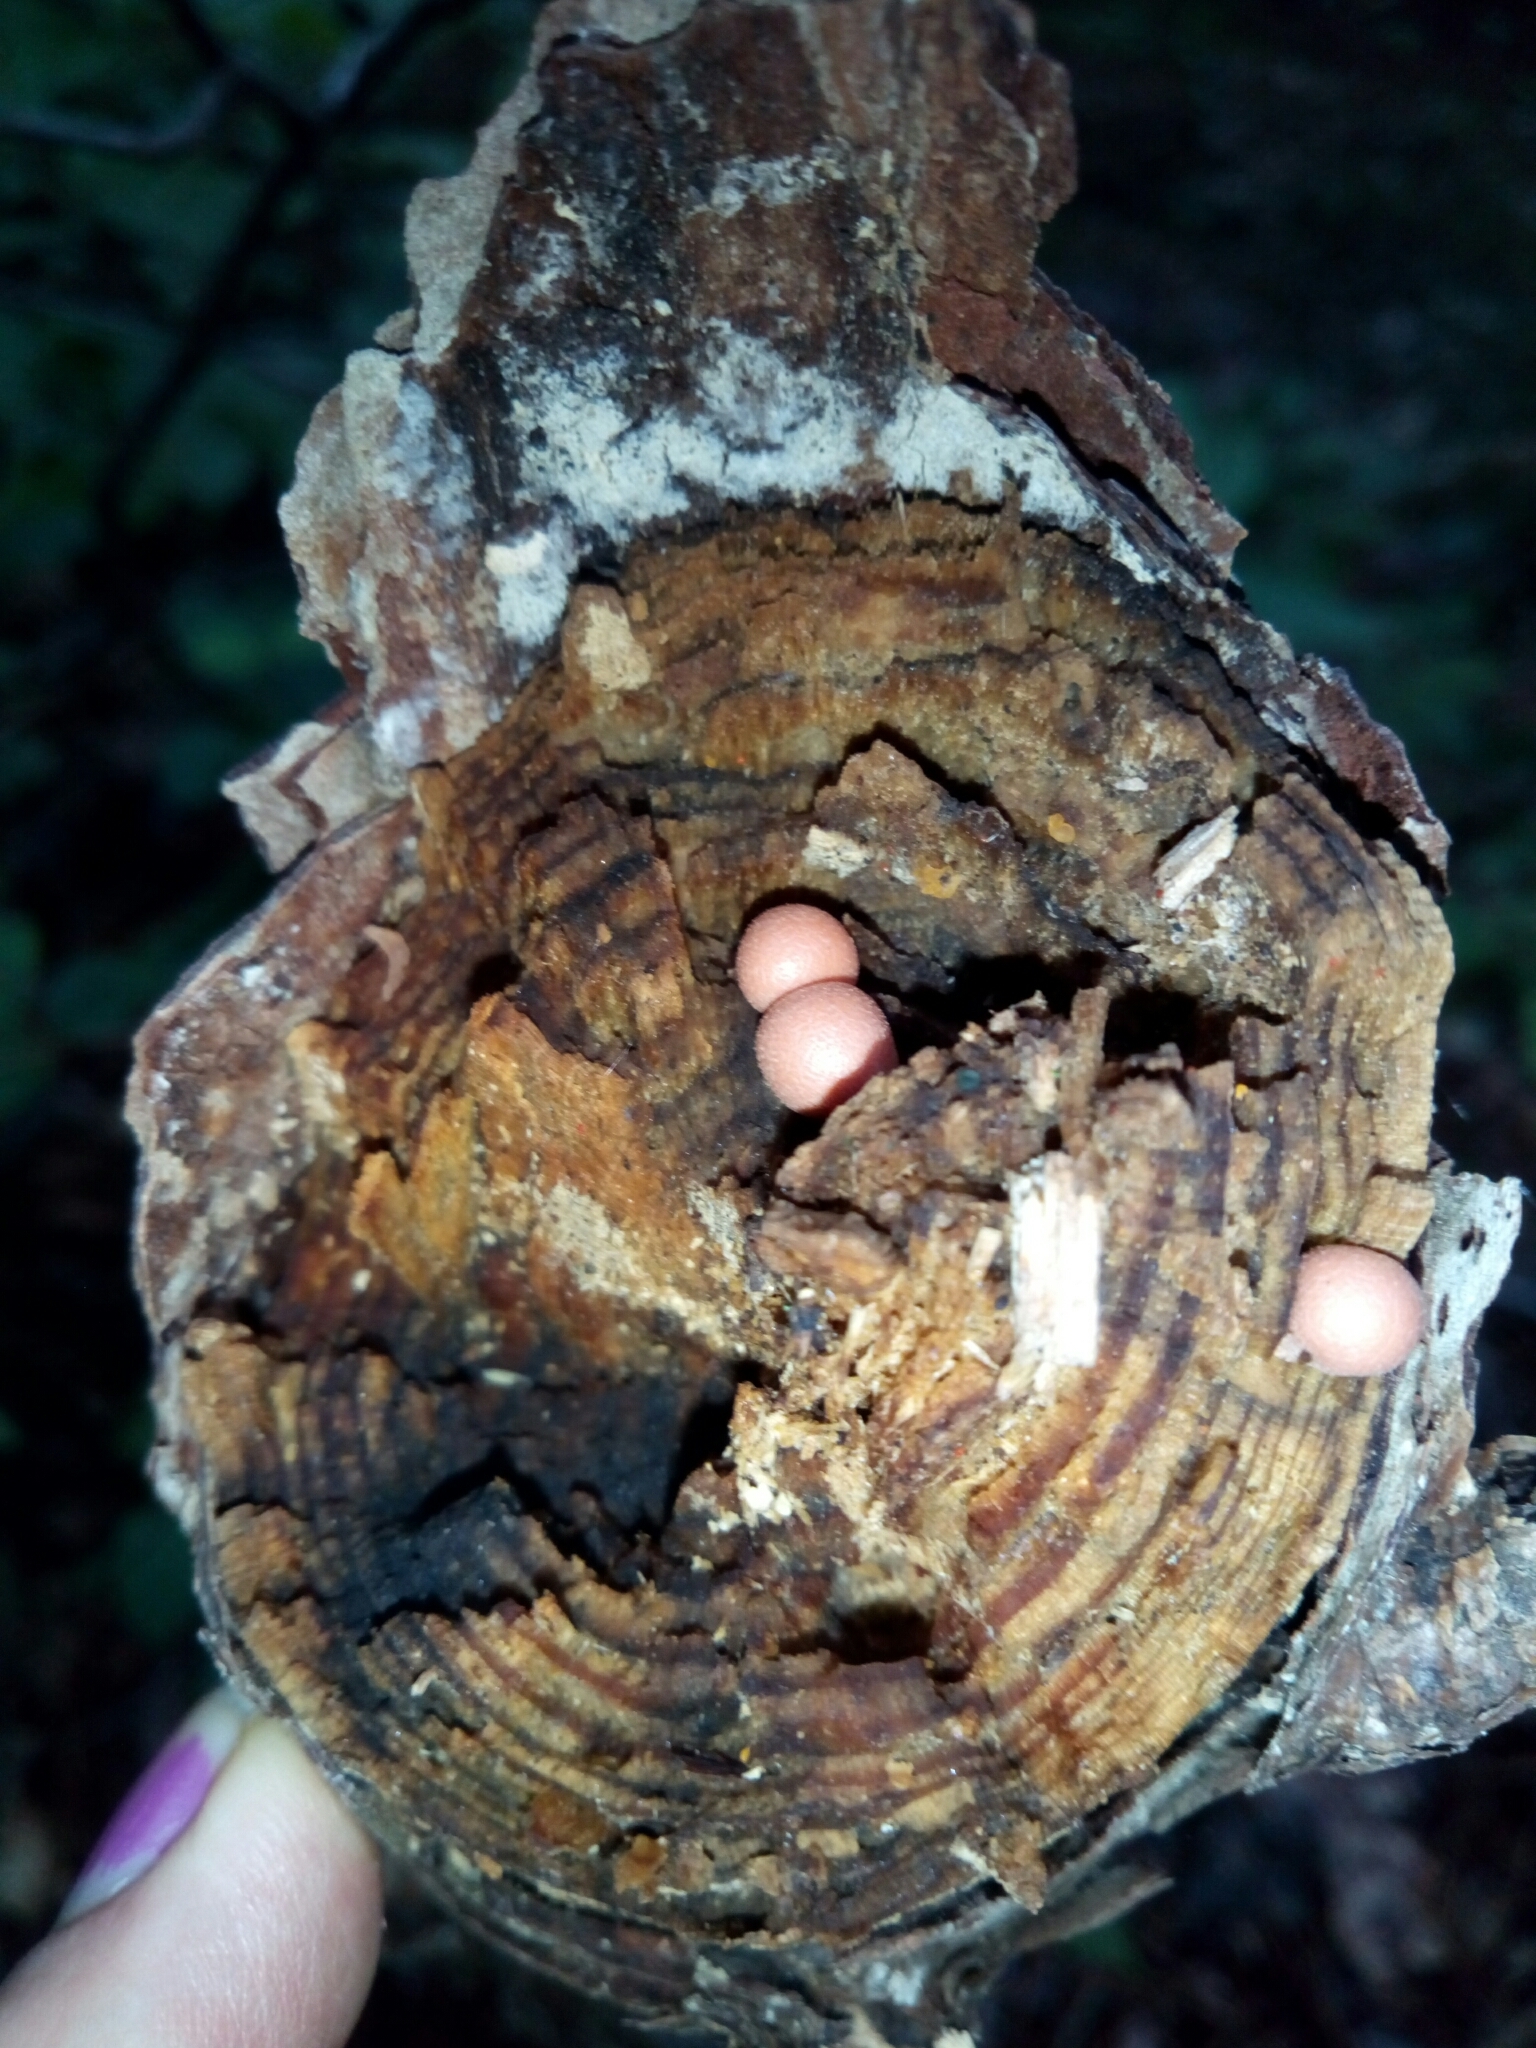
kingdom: Protozoa
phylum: Mycetozoa
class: Myxomycetes
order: Cribrariales
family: Tubiferaceae
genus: Lycogala
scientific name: Lycogala epidendrum
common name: Wolf's milk
